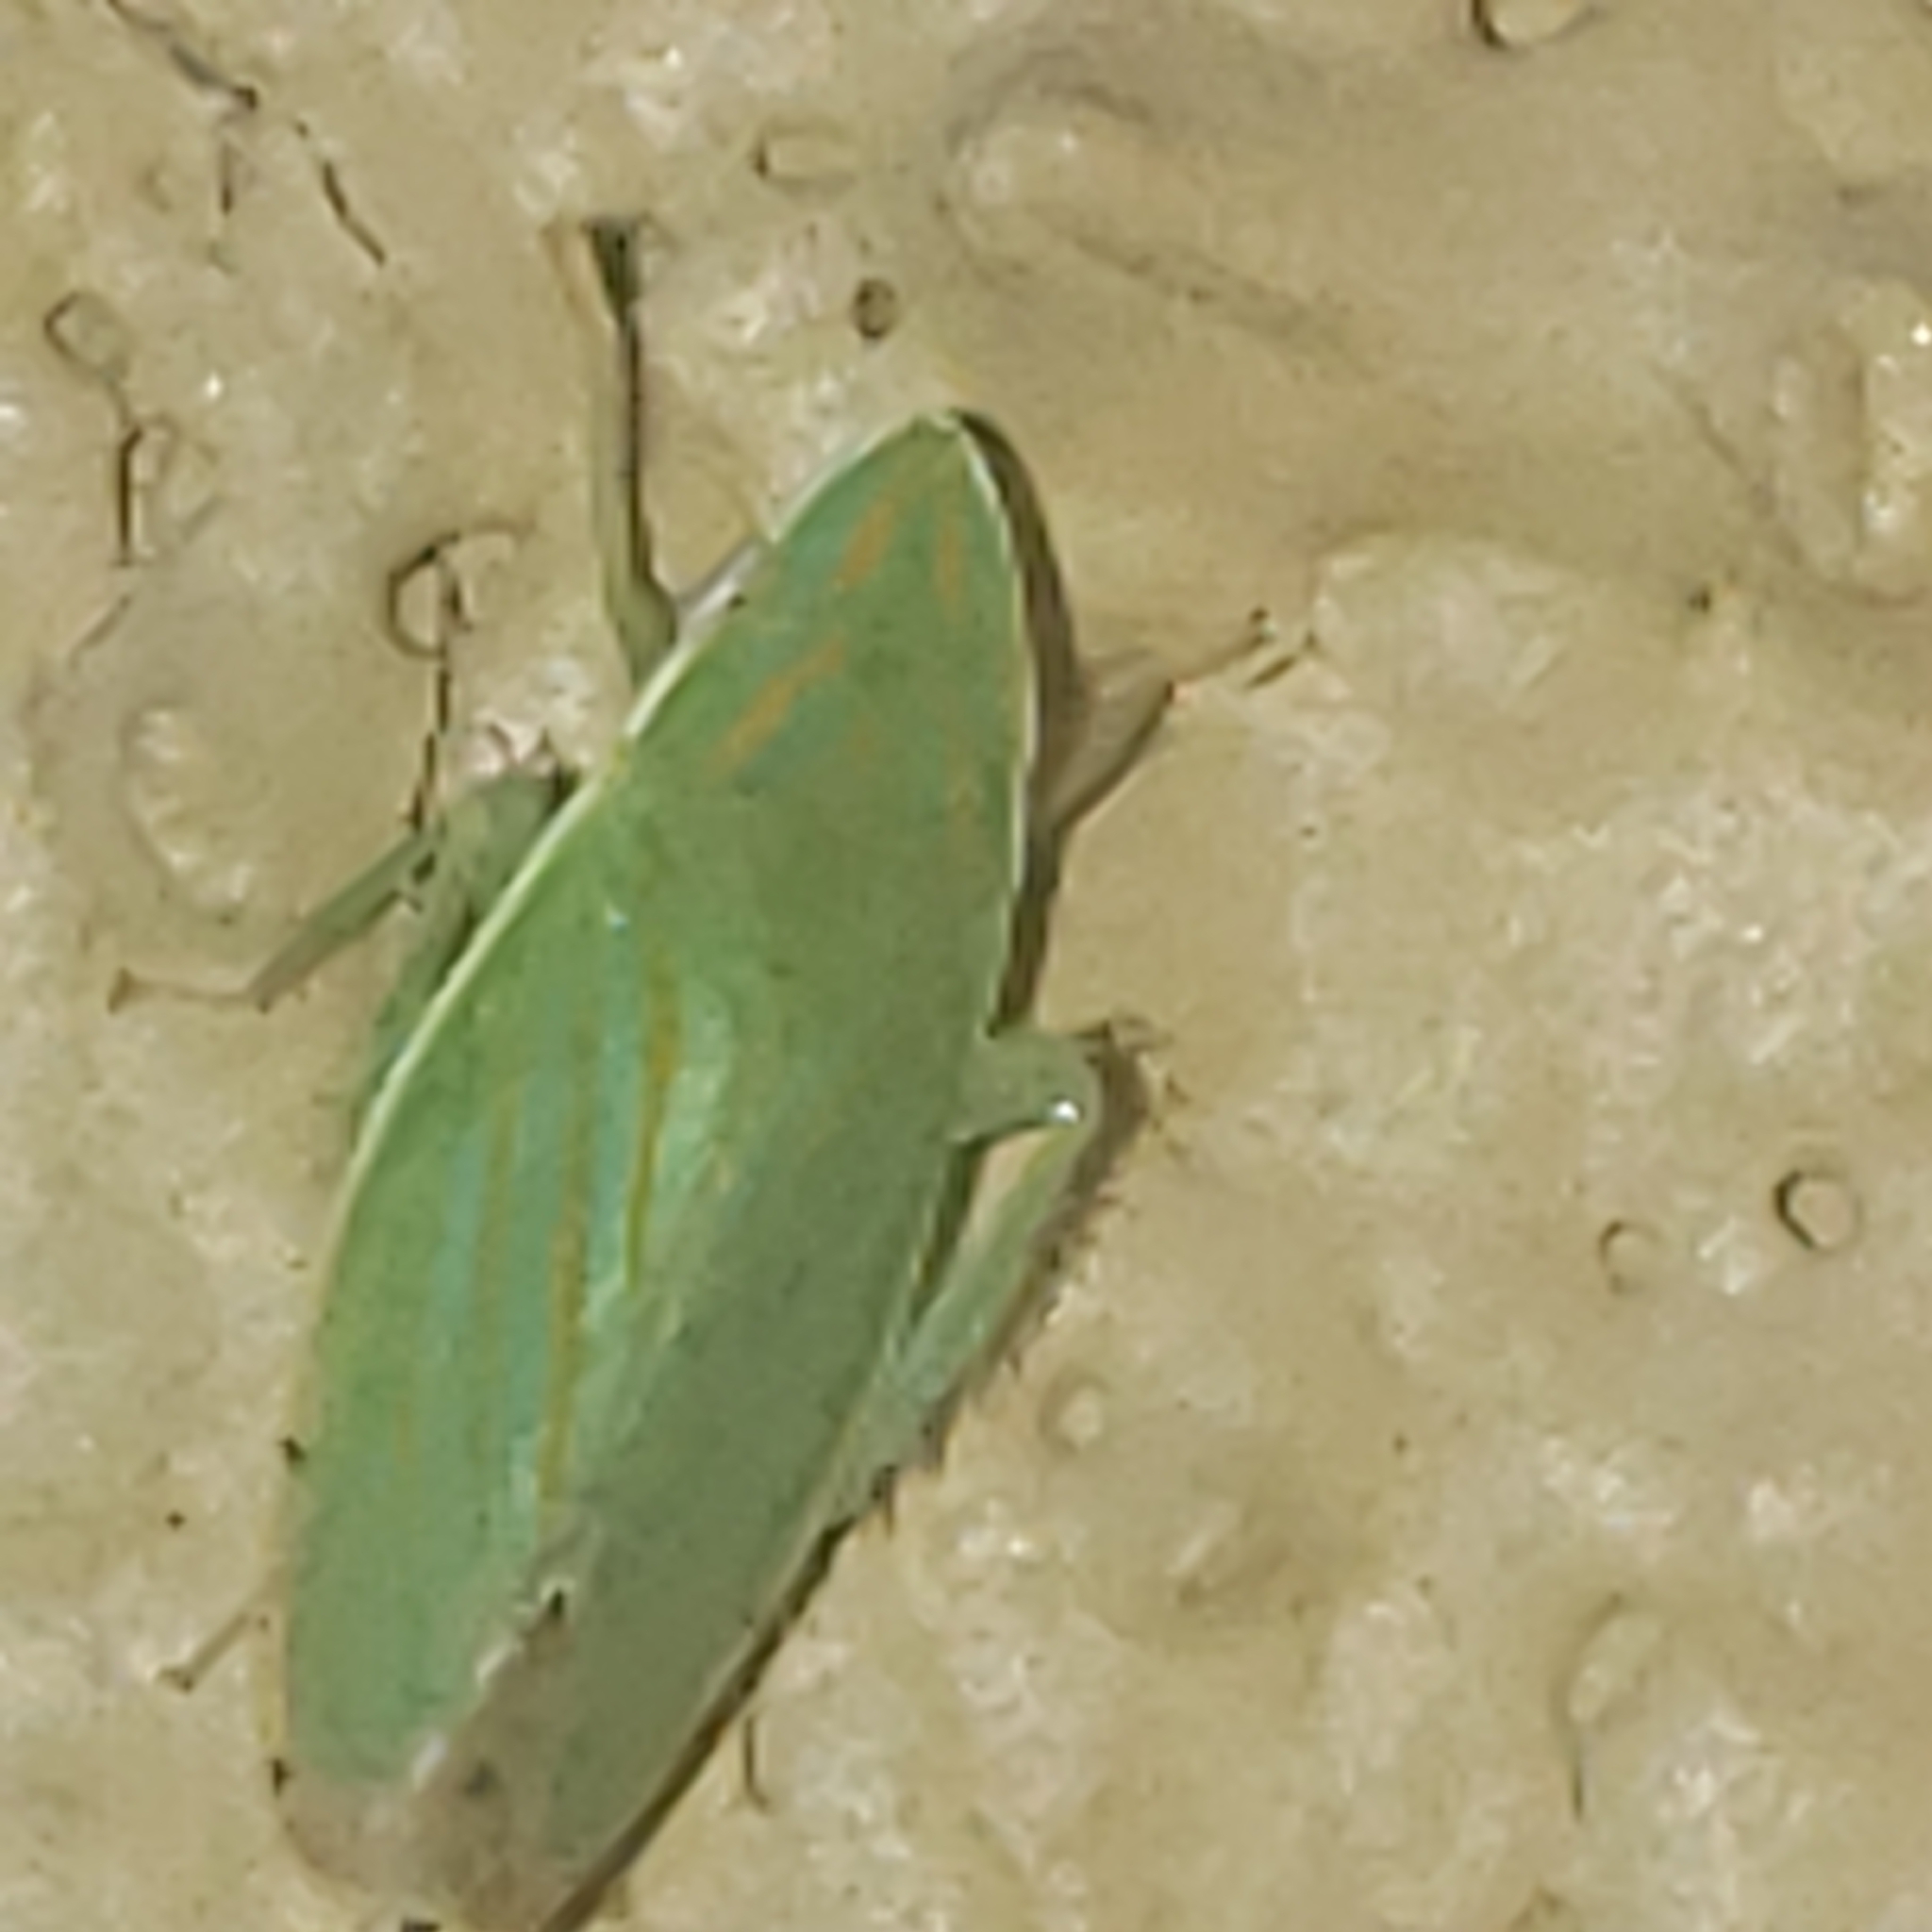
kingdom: Animalia
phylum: Arthropoda
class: Insecta
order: Hemiptera
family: Cicadellidae
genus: Spangbergiella
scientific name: Spangbergiella quadripunctata
